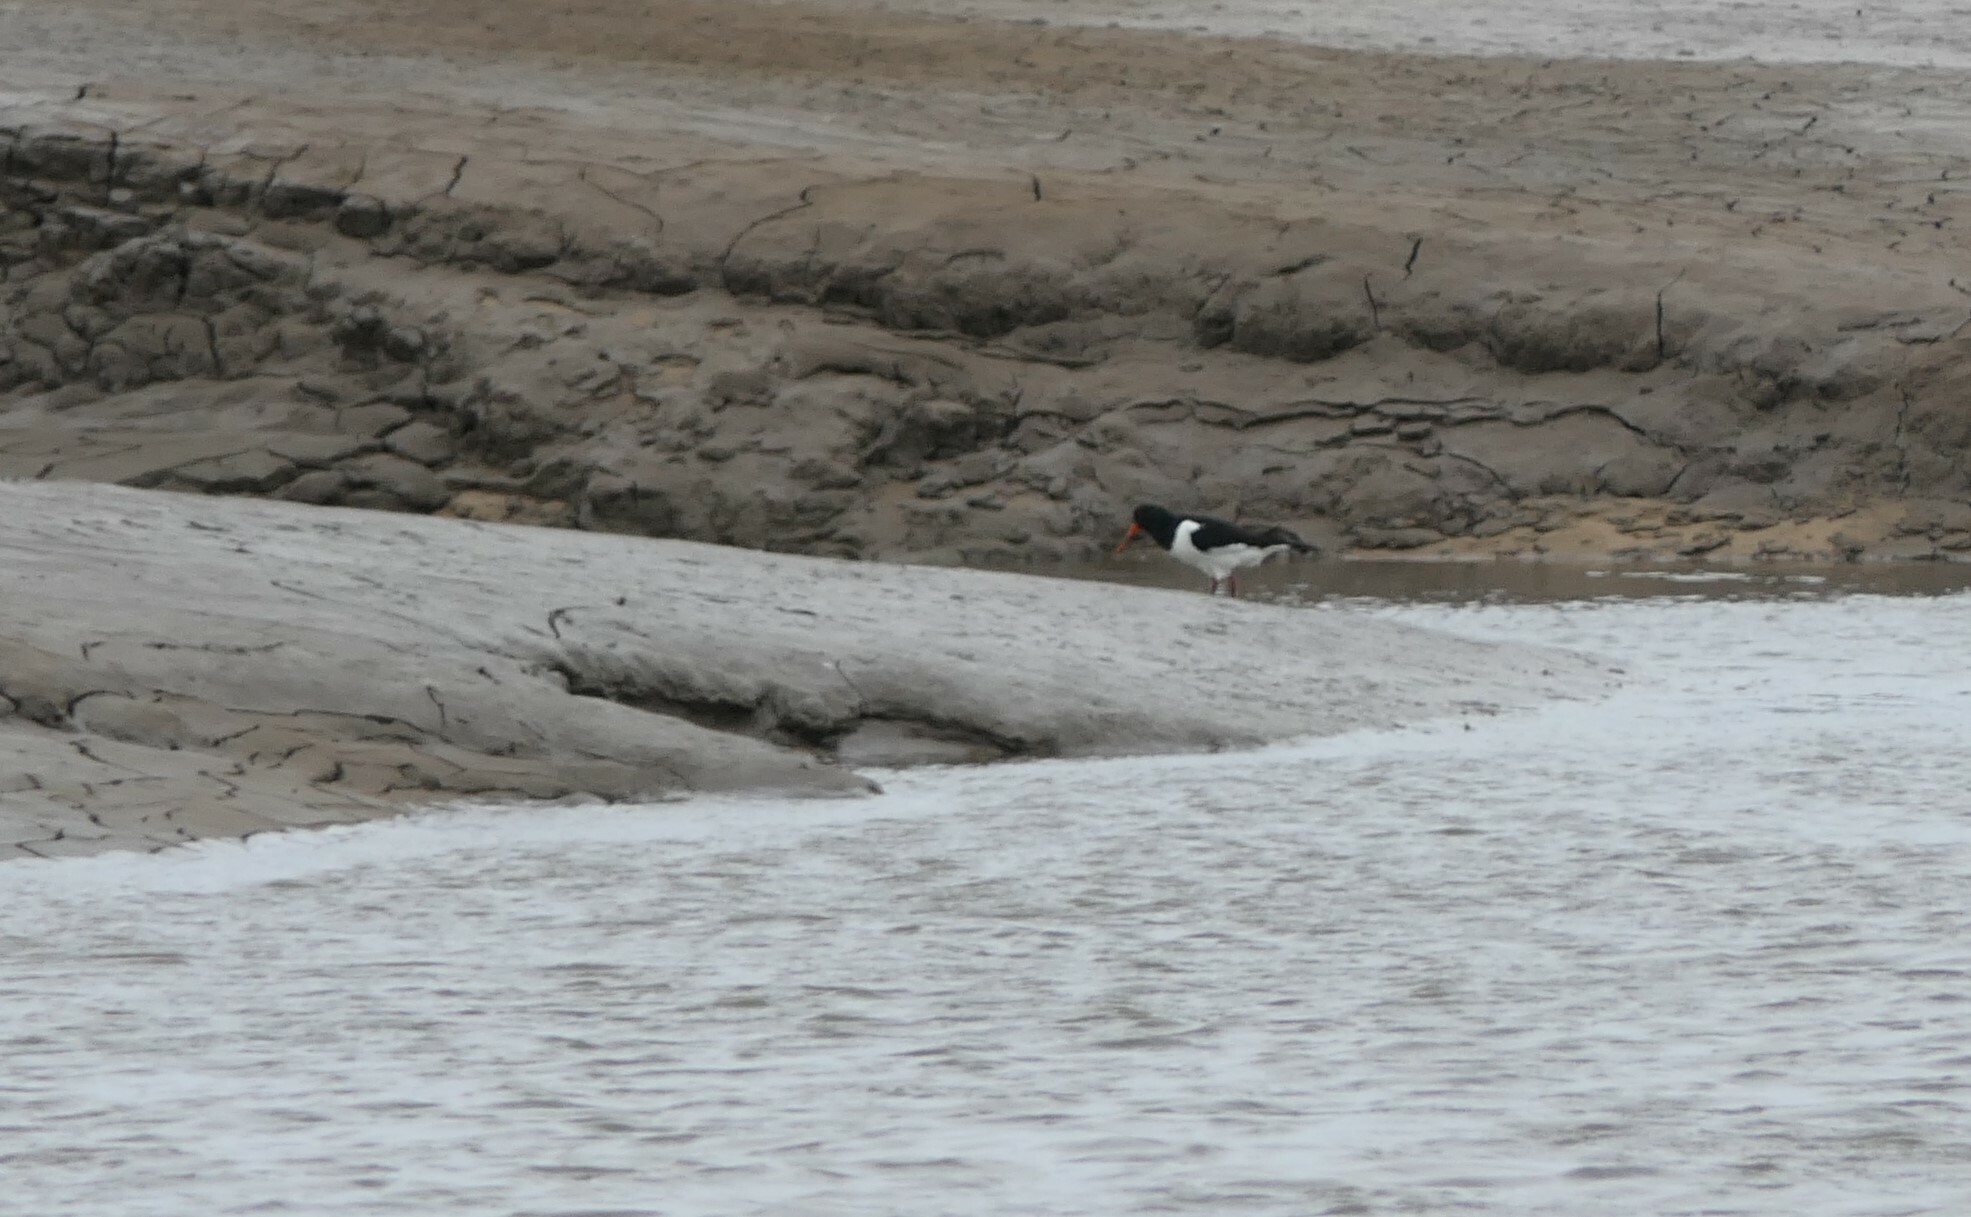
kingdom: Animalia
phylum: Chordata
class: Aves
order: Charadriiformes
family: Haematopodidae
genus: Haematopus
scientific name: Haematopus ostralegus
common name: Eurasian oystercatcher
